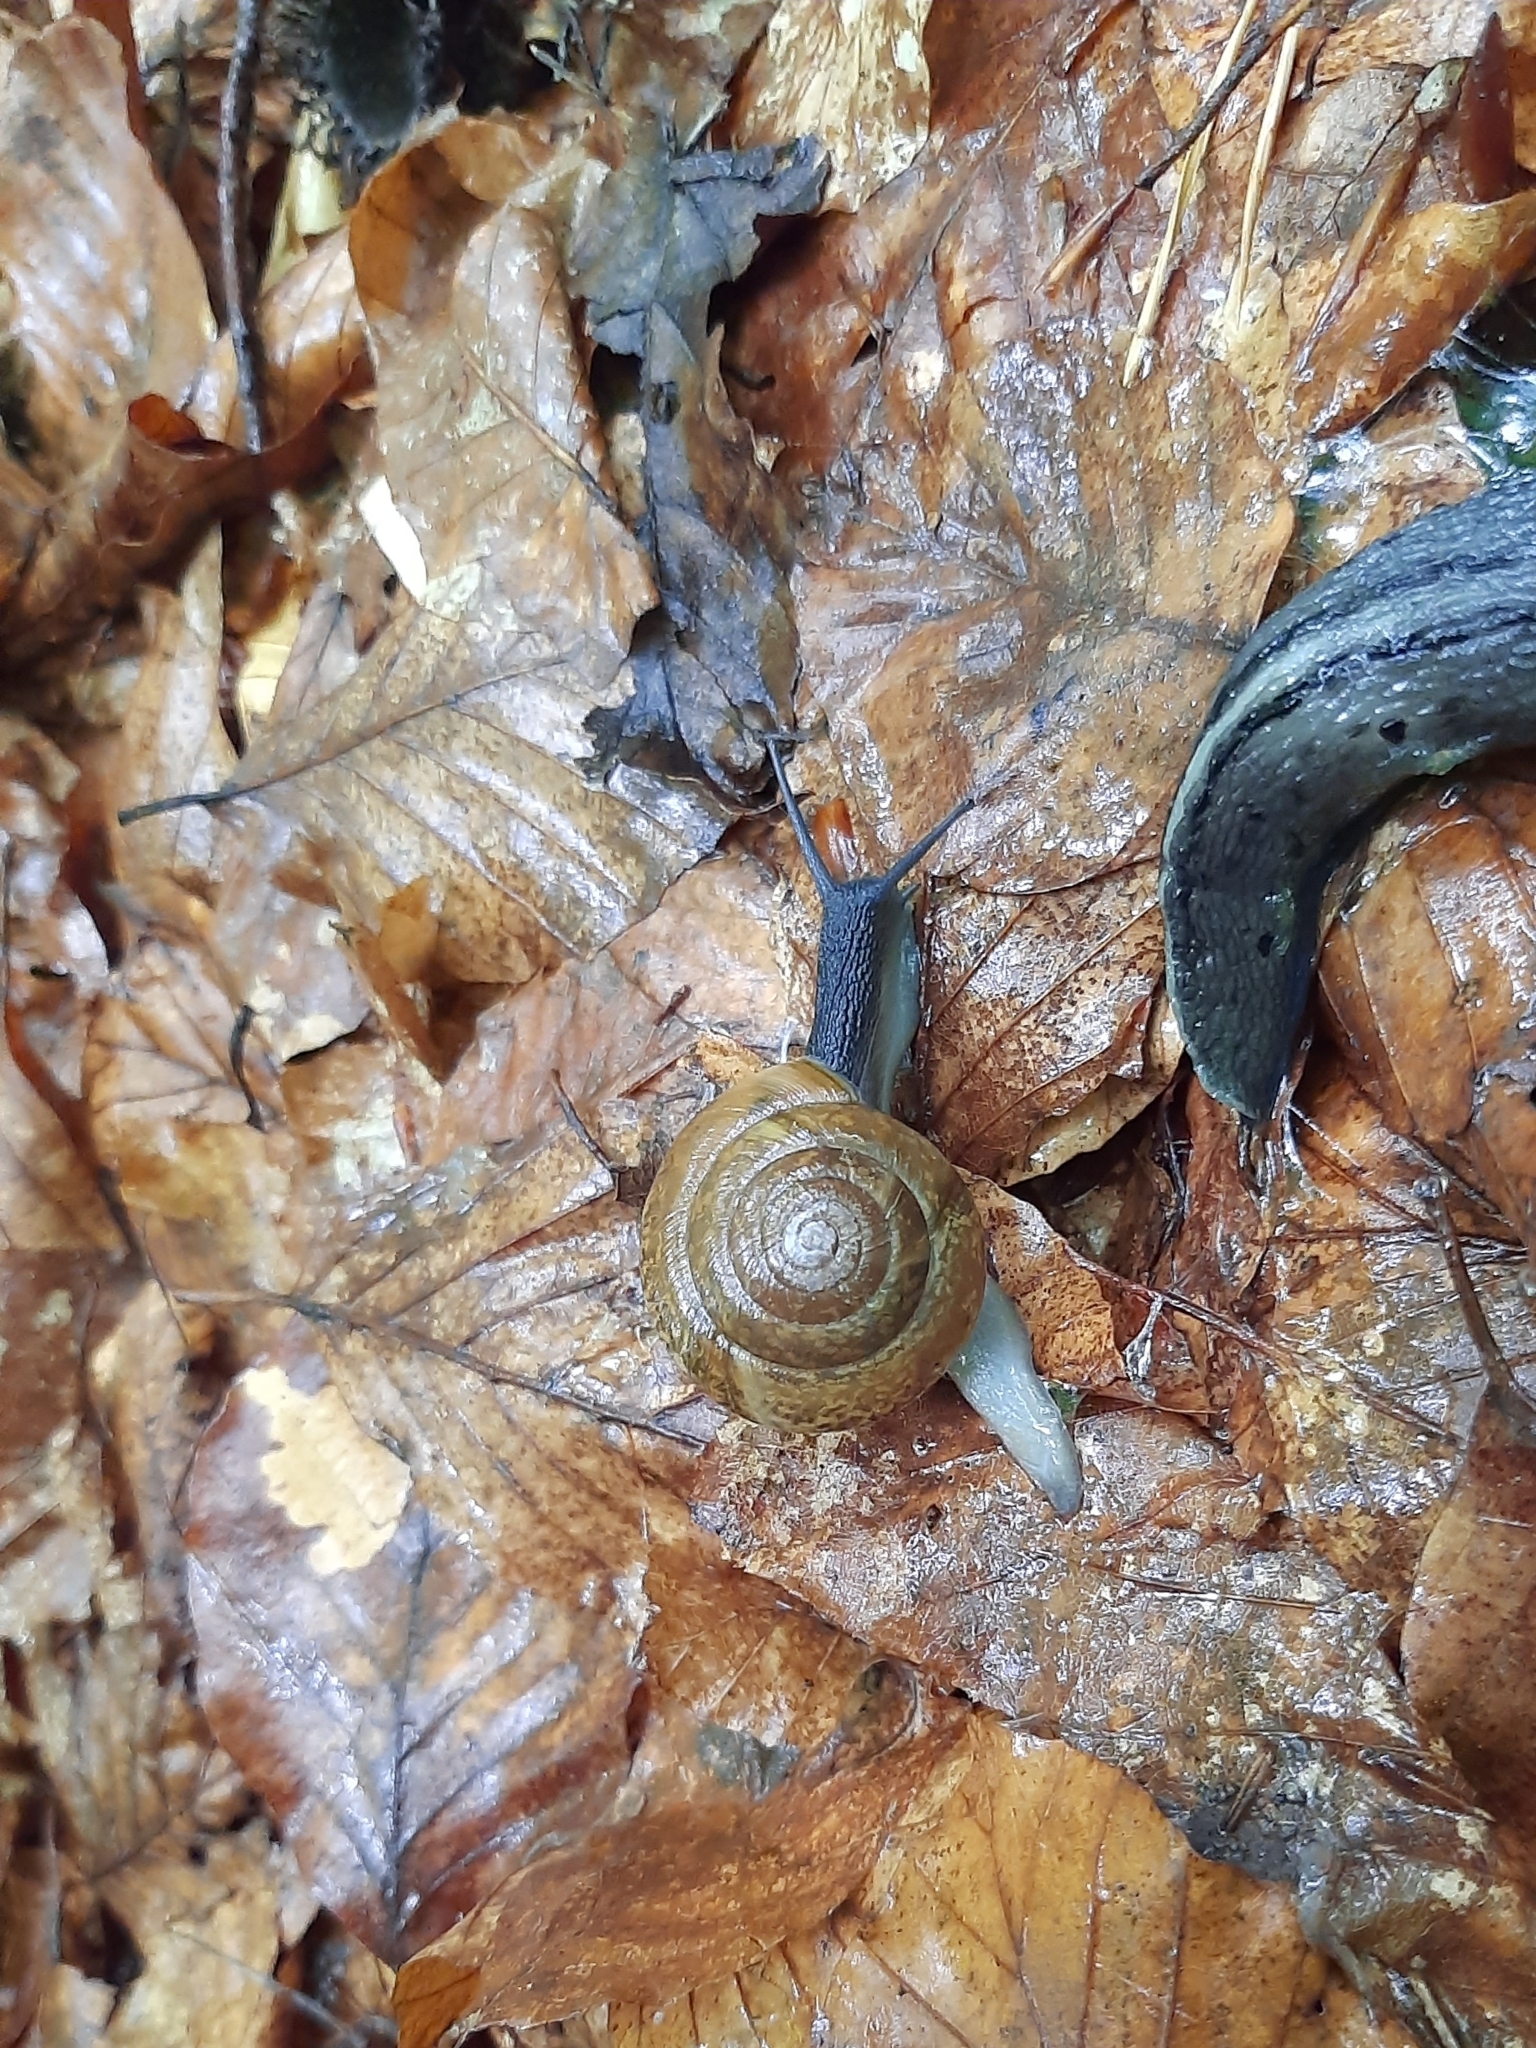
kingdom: Animalia
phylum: Mollusca
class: Gastropoda
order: Stylommatophora
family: Zonitidae
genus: Aegopis
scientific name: Aegopis verticillus
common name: Giant glass snail
